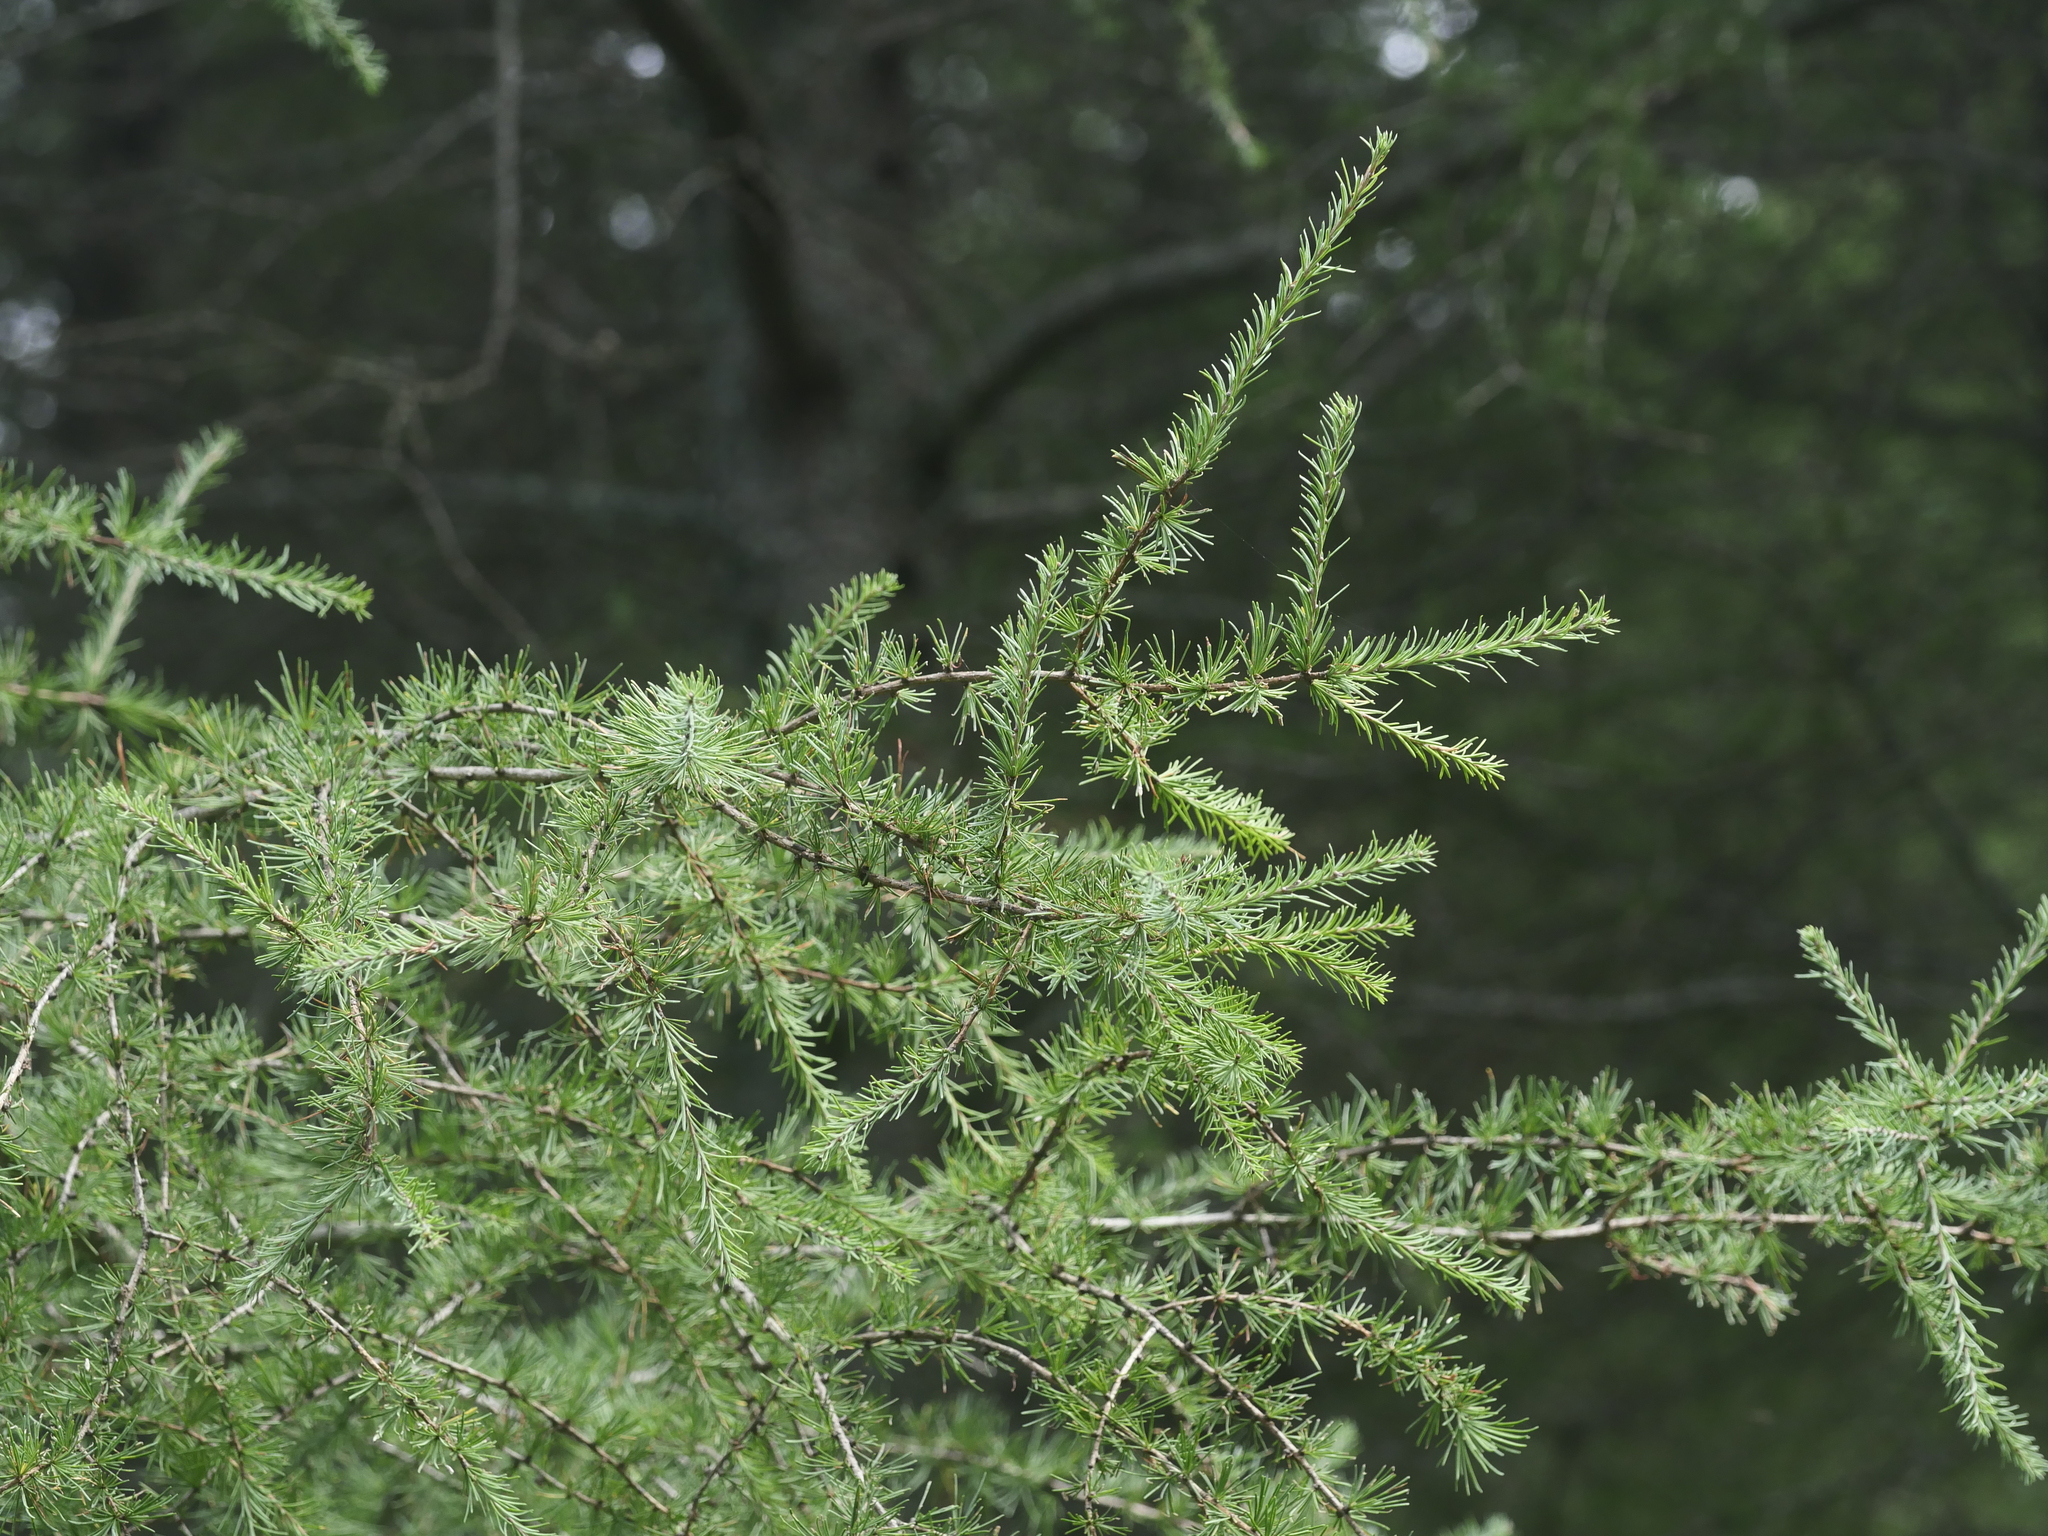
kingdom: Plantae
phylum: Tracheophyta
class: Pinopsida
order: Pinales
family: Pinaceae
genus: Larix
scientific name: Larix laricina
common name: American larch
